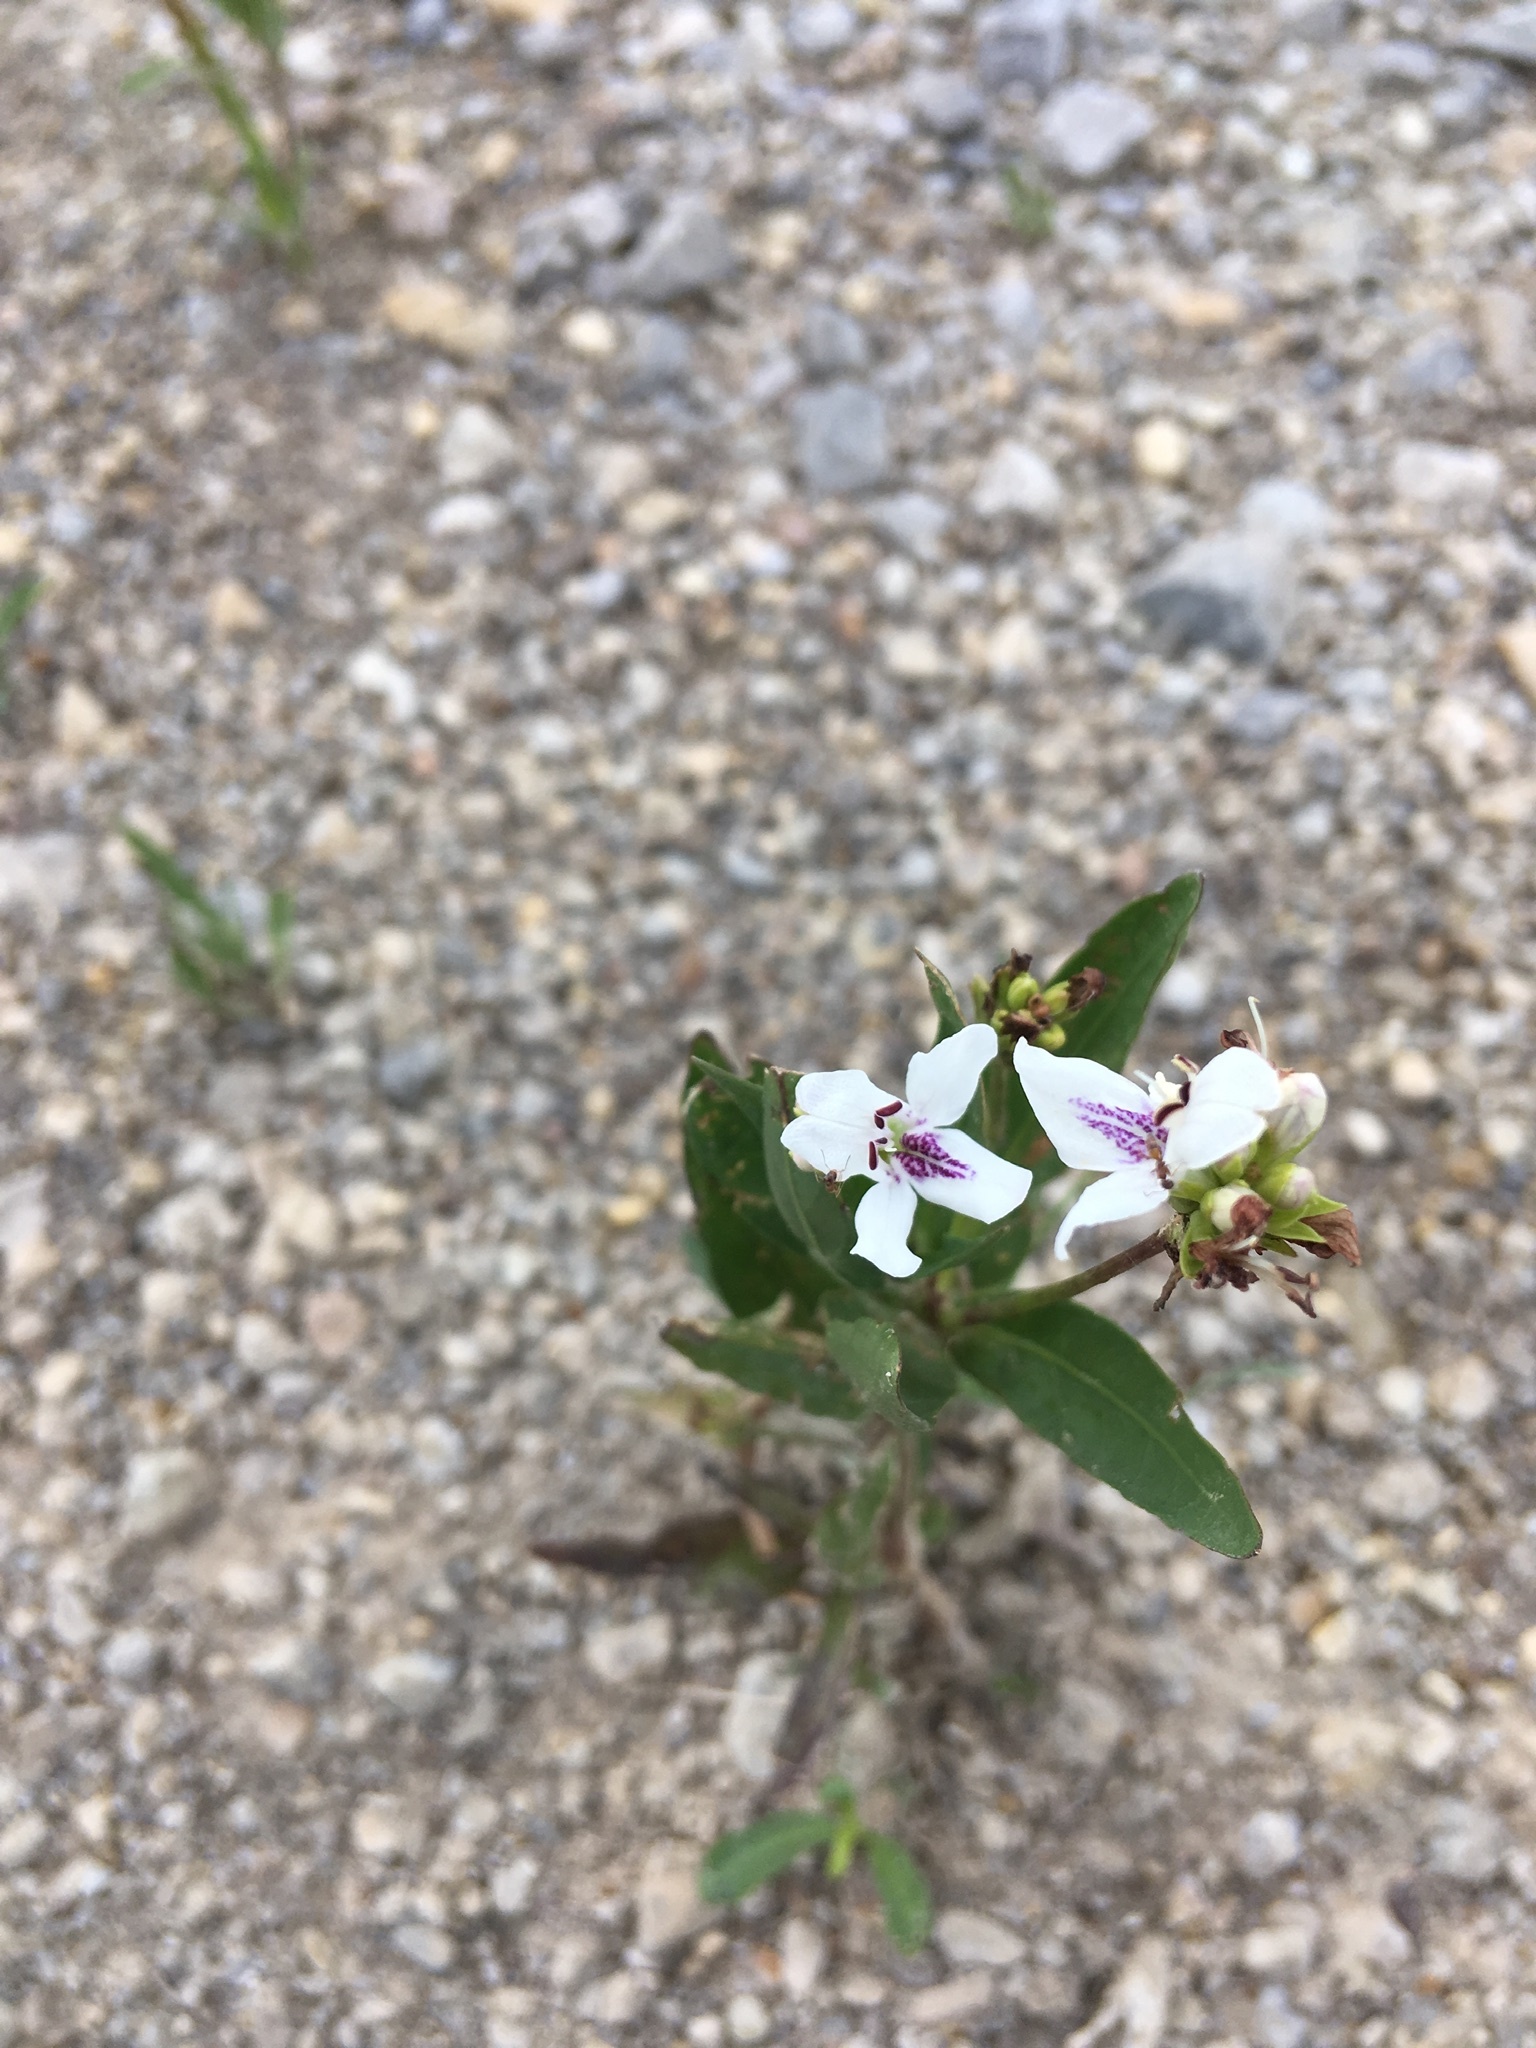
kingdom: Plantae
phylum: Tracheophyta
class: Magnoliopsida
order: Lamiales
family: Acanthaceae
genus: Dianthera
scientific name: Dianthera americana
